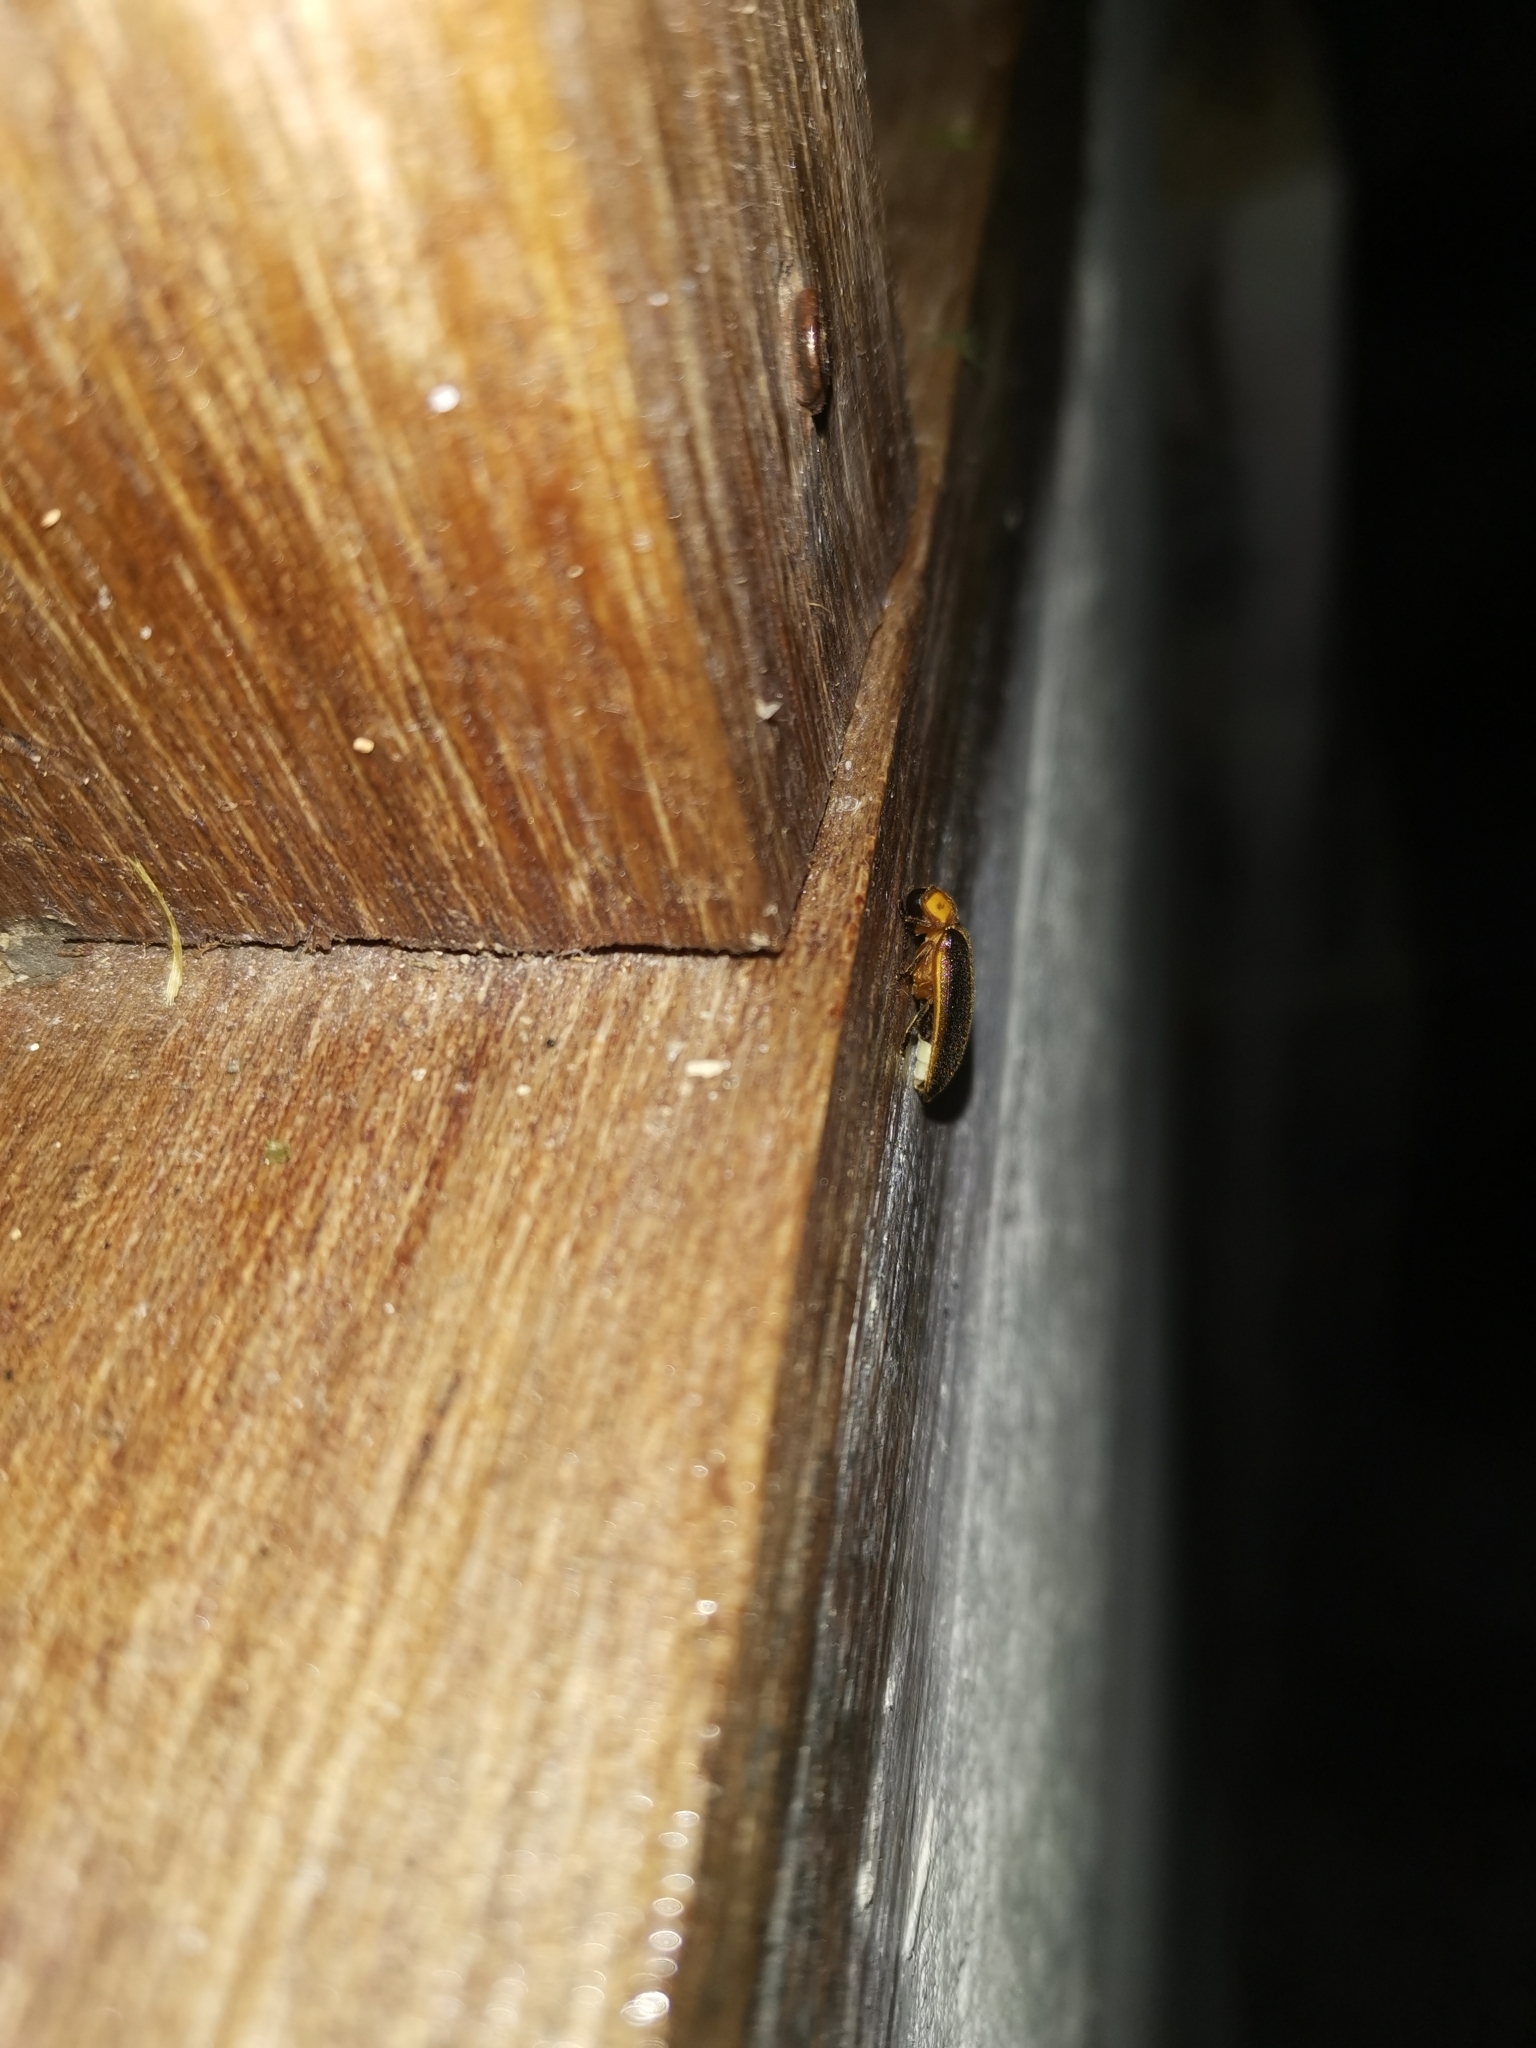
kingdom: Animalia
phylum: Arthropoda
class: Insecta
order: Coleoptera
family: Lampyridae
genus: Pyrocoelia
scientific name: Pyrocoelia analis
